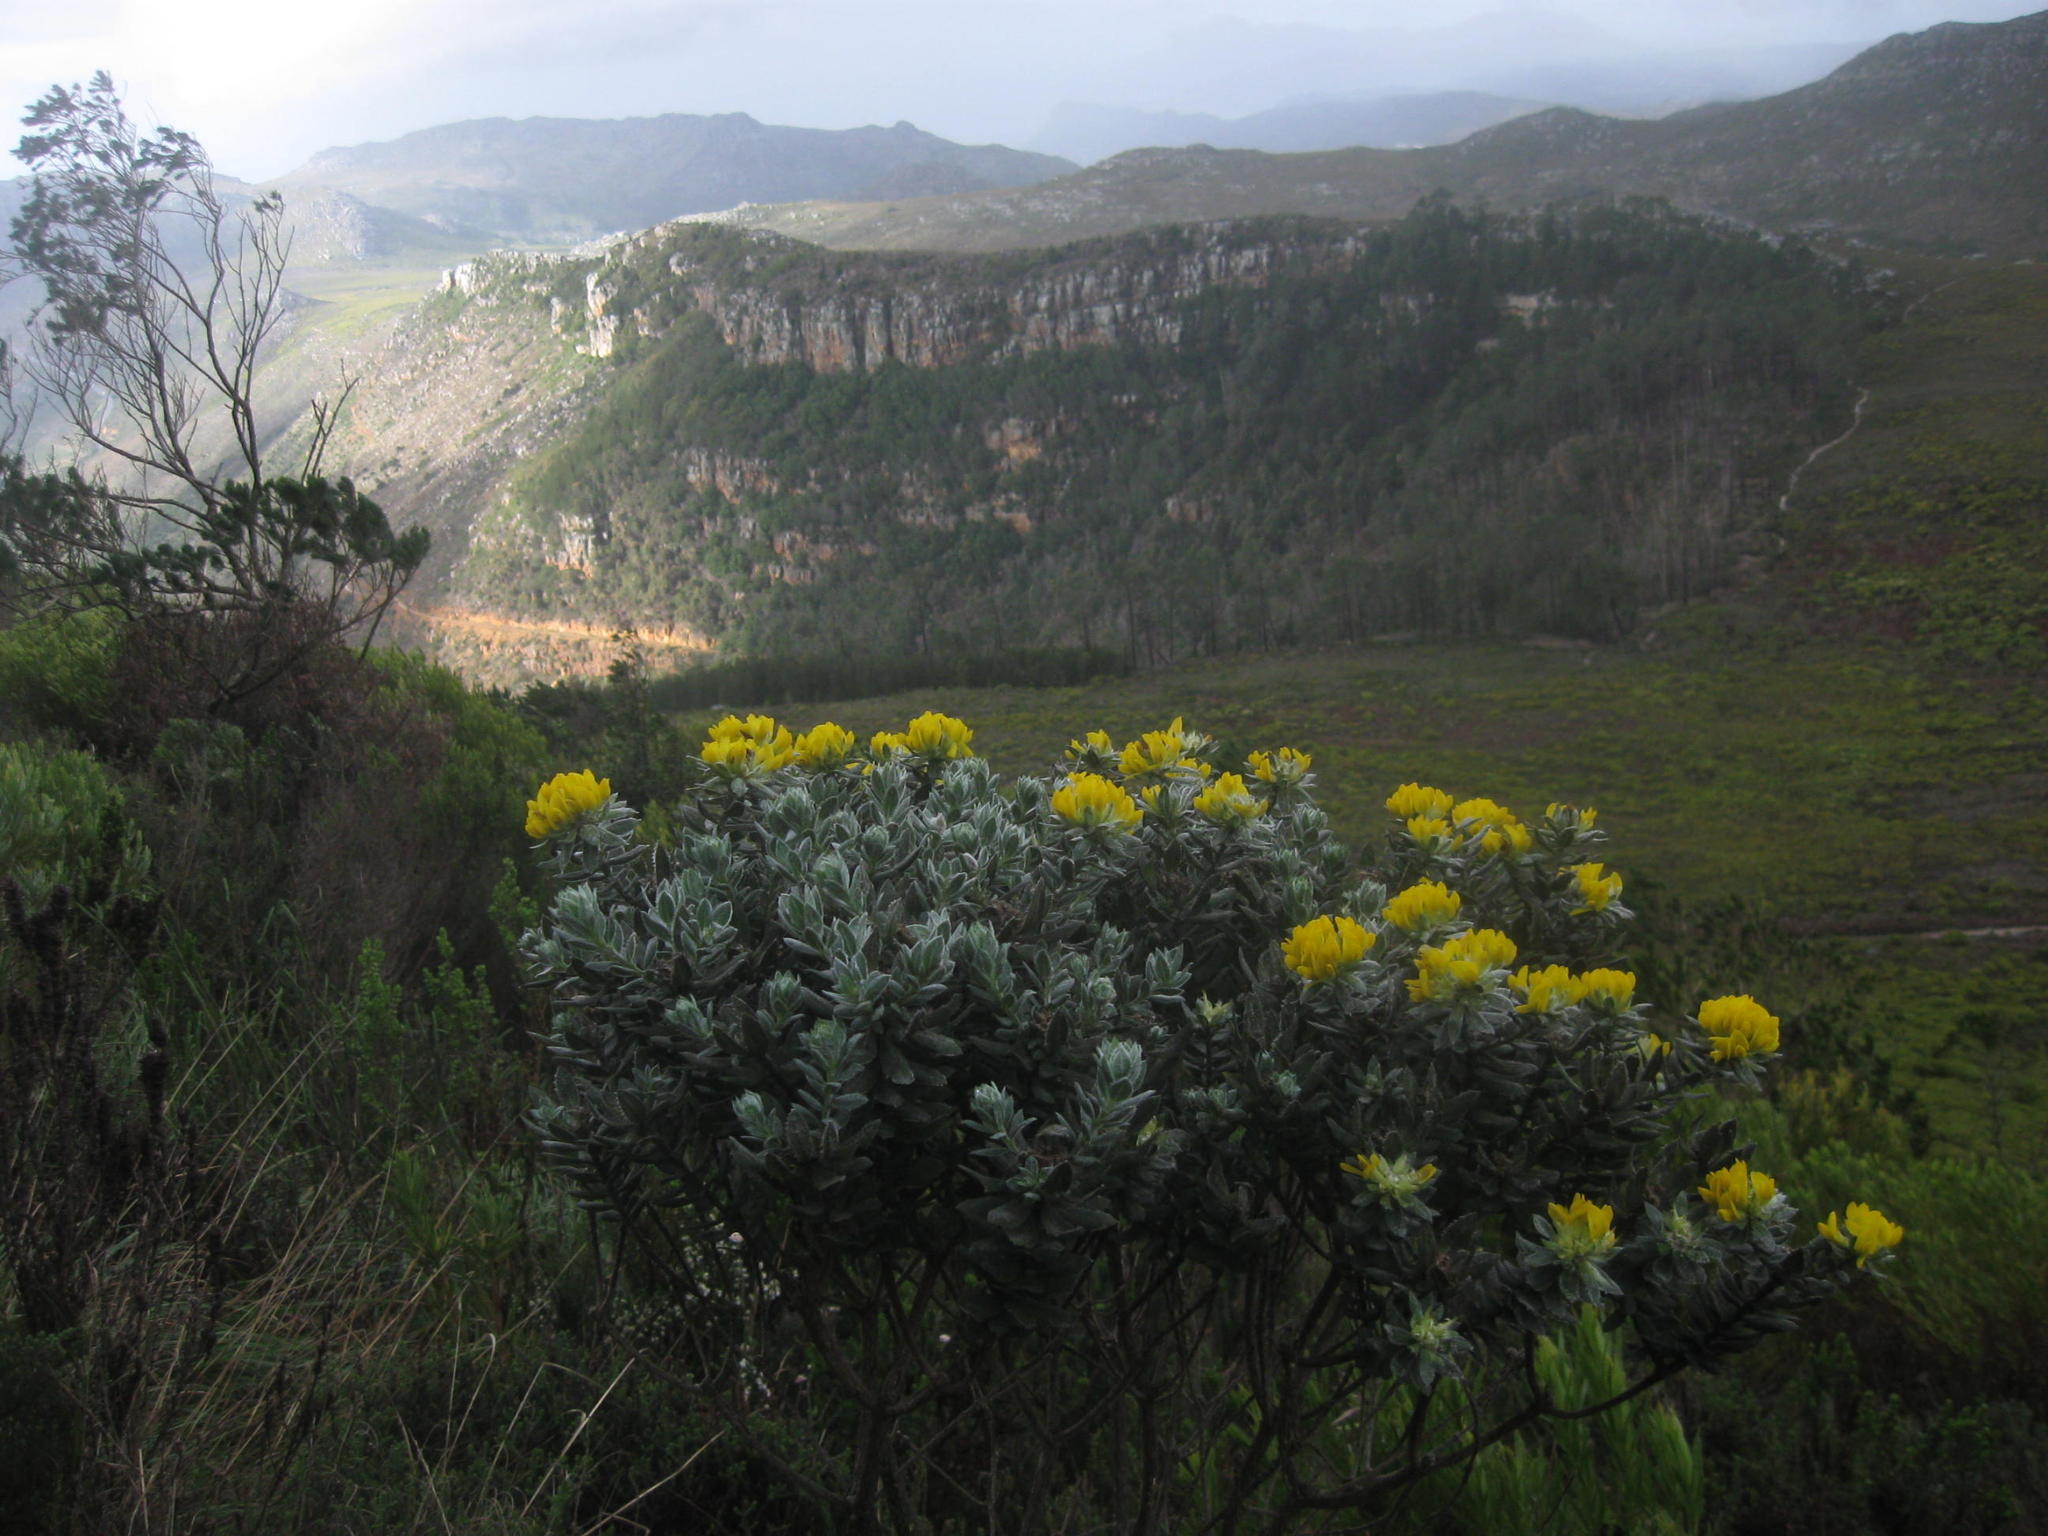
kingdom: Plantae
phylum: Tracheophyta
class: Magnoliopsida
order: Fabales
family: Fabaceae
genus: Xiphotheca
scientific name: Xiphotheca fruticosa
